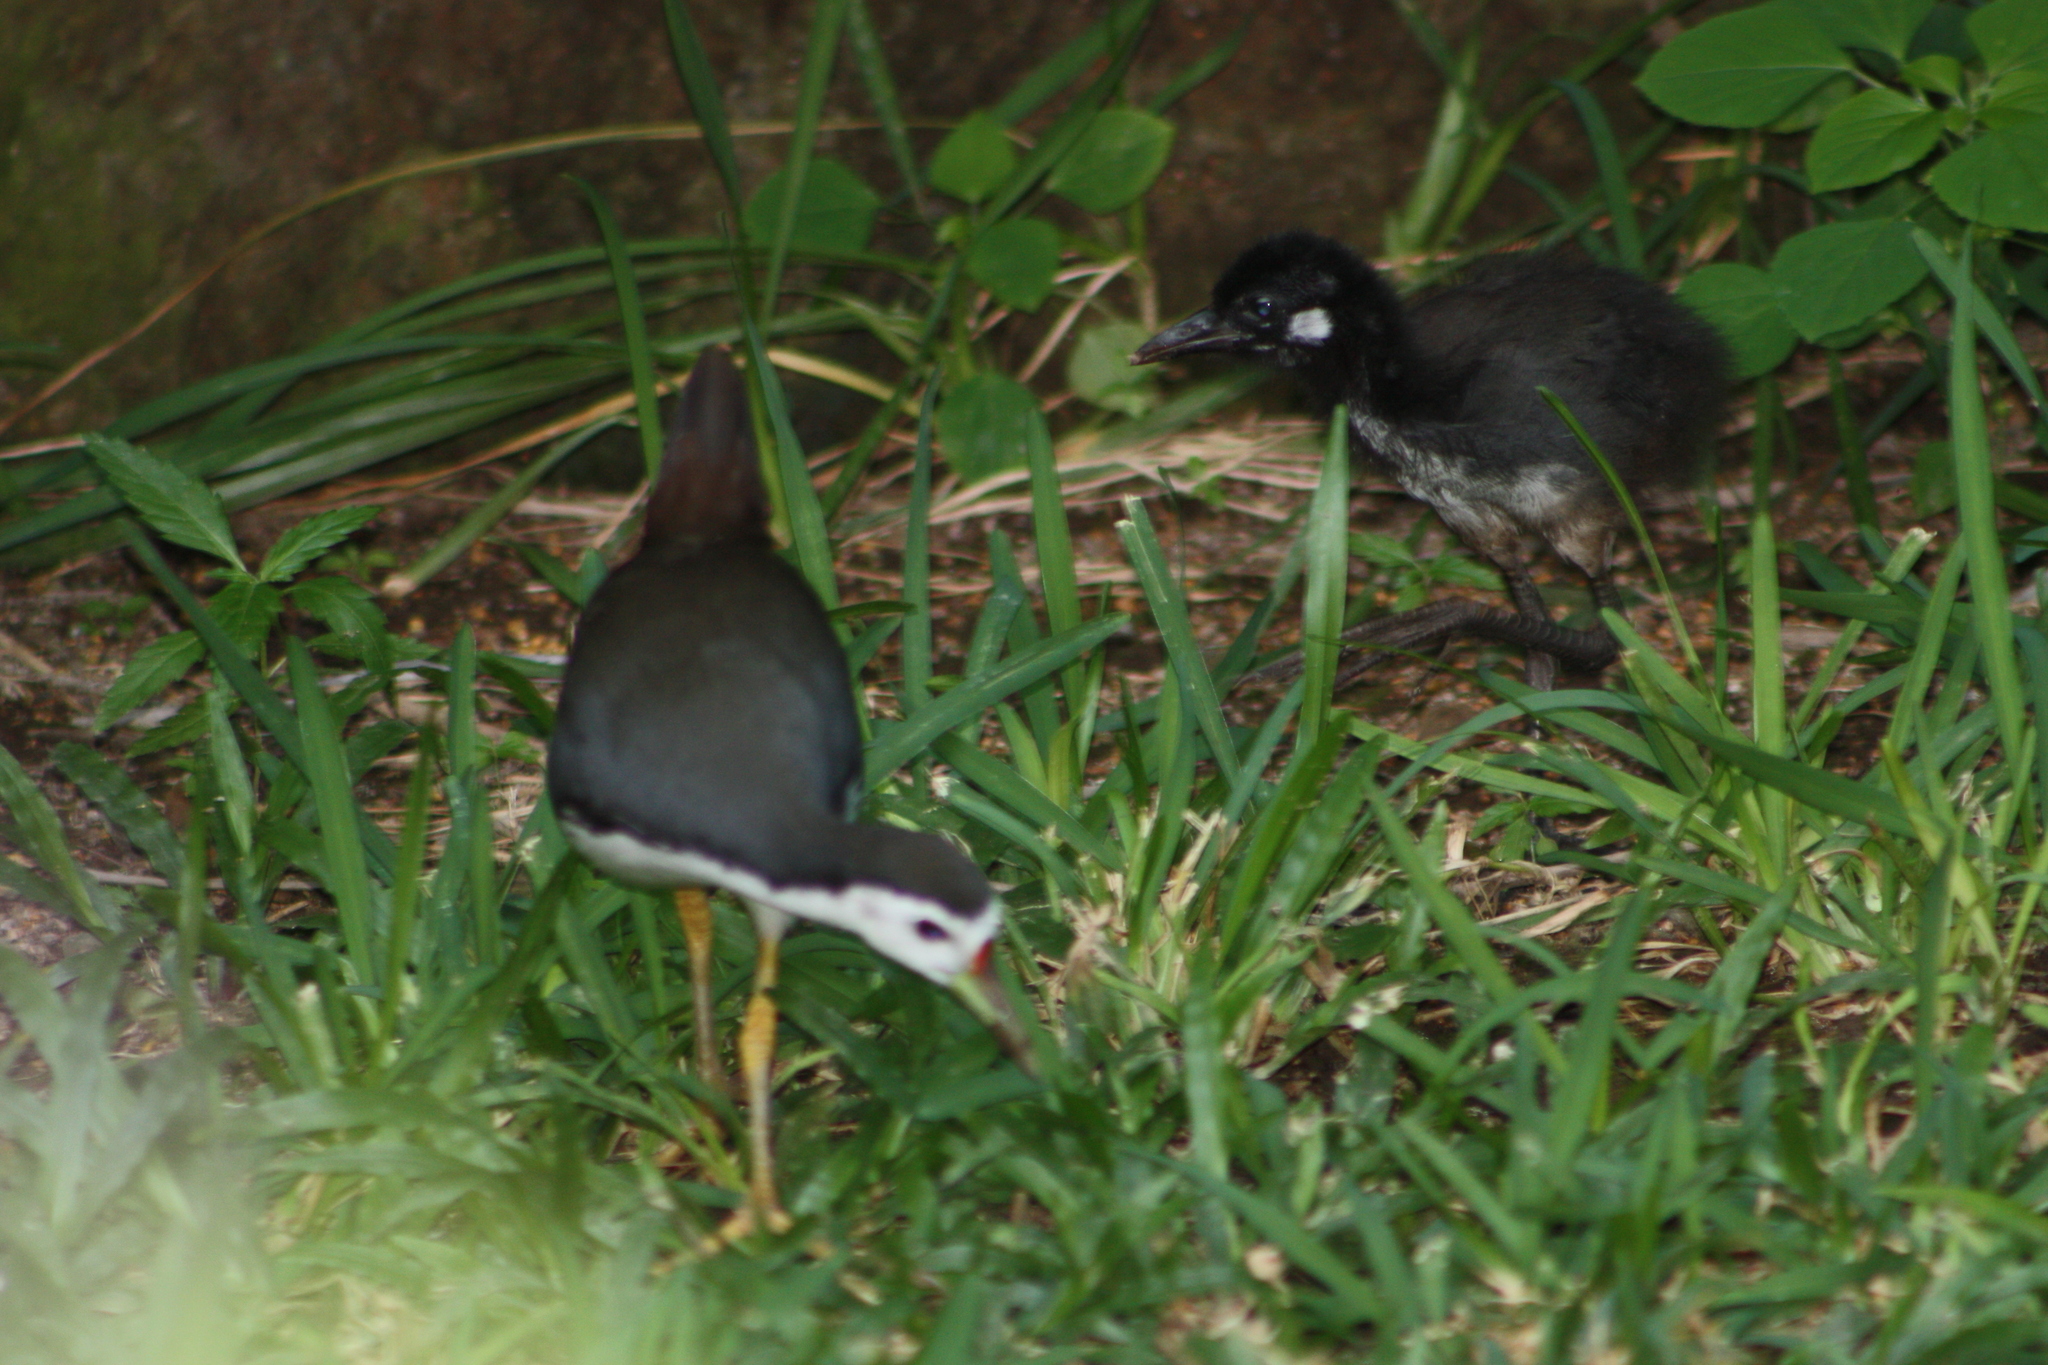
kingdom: Animalia
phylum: Chordata
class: Aves
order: Gruiformes
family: Rallidae
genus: Amaurornis
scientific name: Amaurornis phoenicurus
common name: White-breasted waterhen
